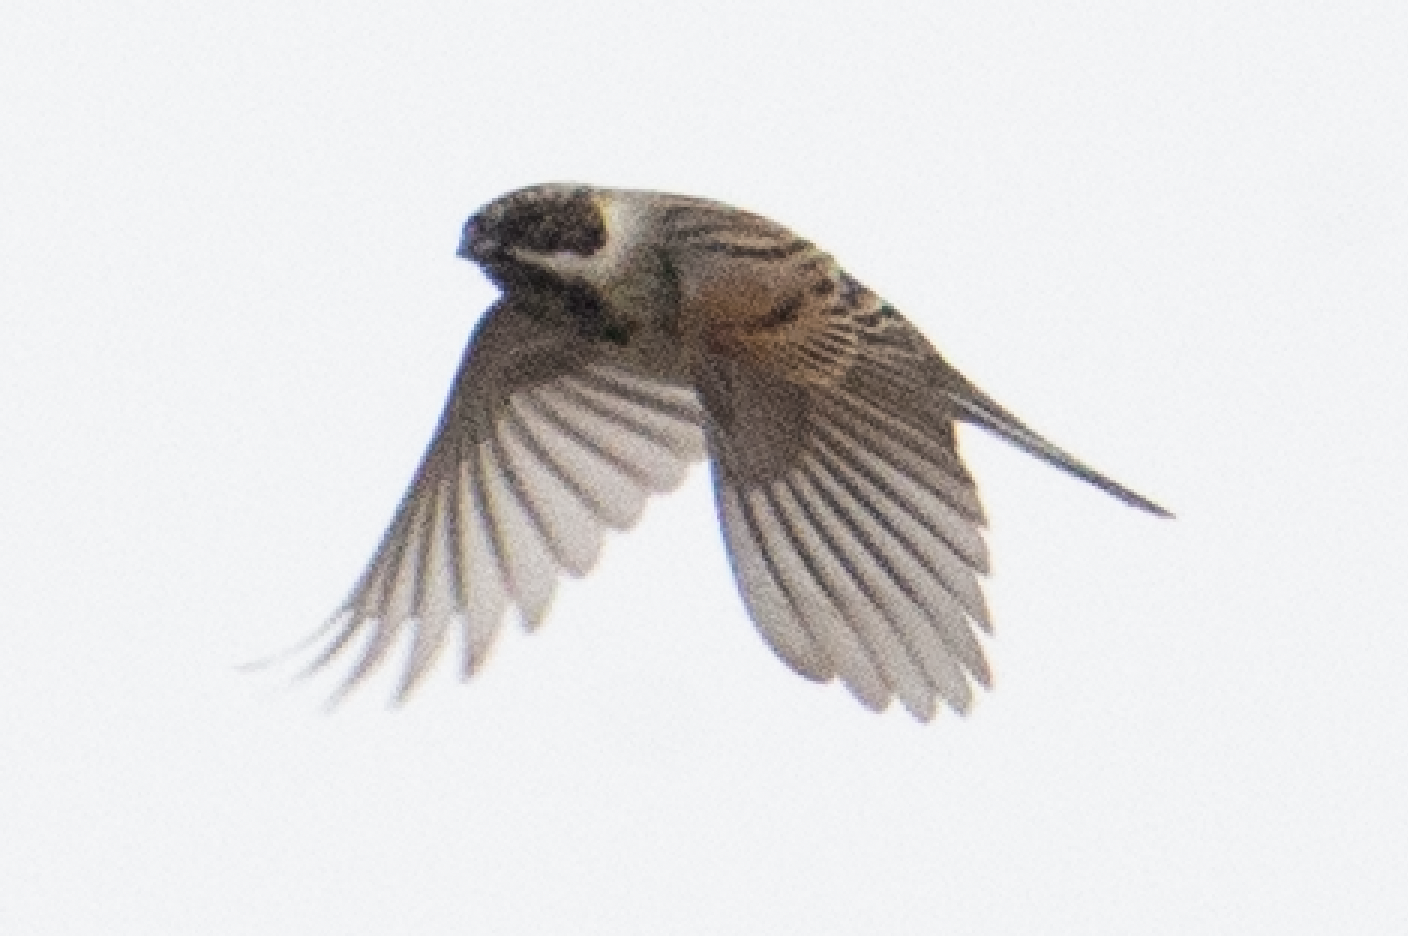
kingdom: Animalia
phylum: Chordata
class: Aves
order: Passeriformes
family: Emberizidae
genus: Emberiza
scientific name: Emberiza schoeniclus
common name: Reed bunting
